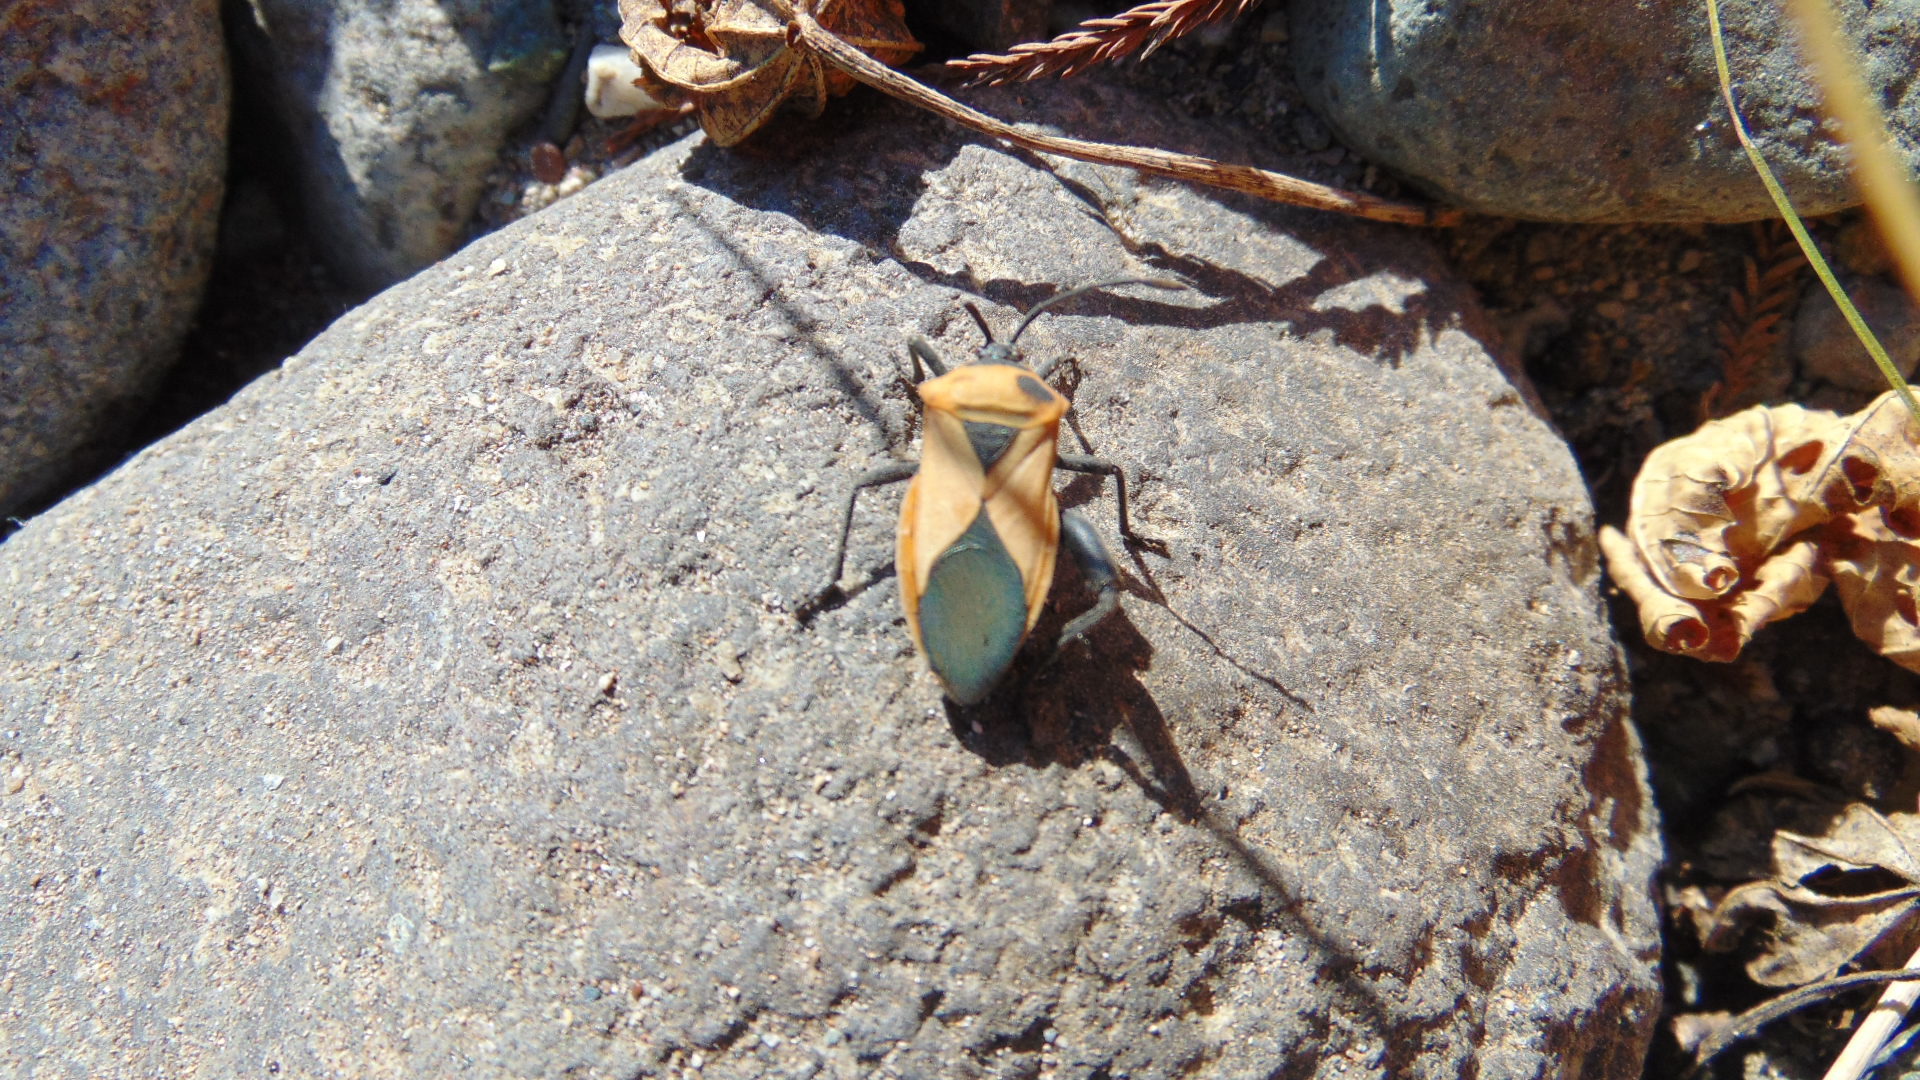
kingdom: Animalia
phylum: Arthropoda
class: Insecta
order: Hemiptera
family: Coreidae
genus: Sagotylus
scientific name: Sagotylus confluens
